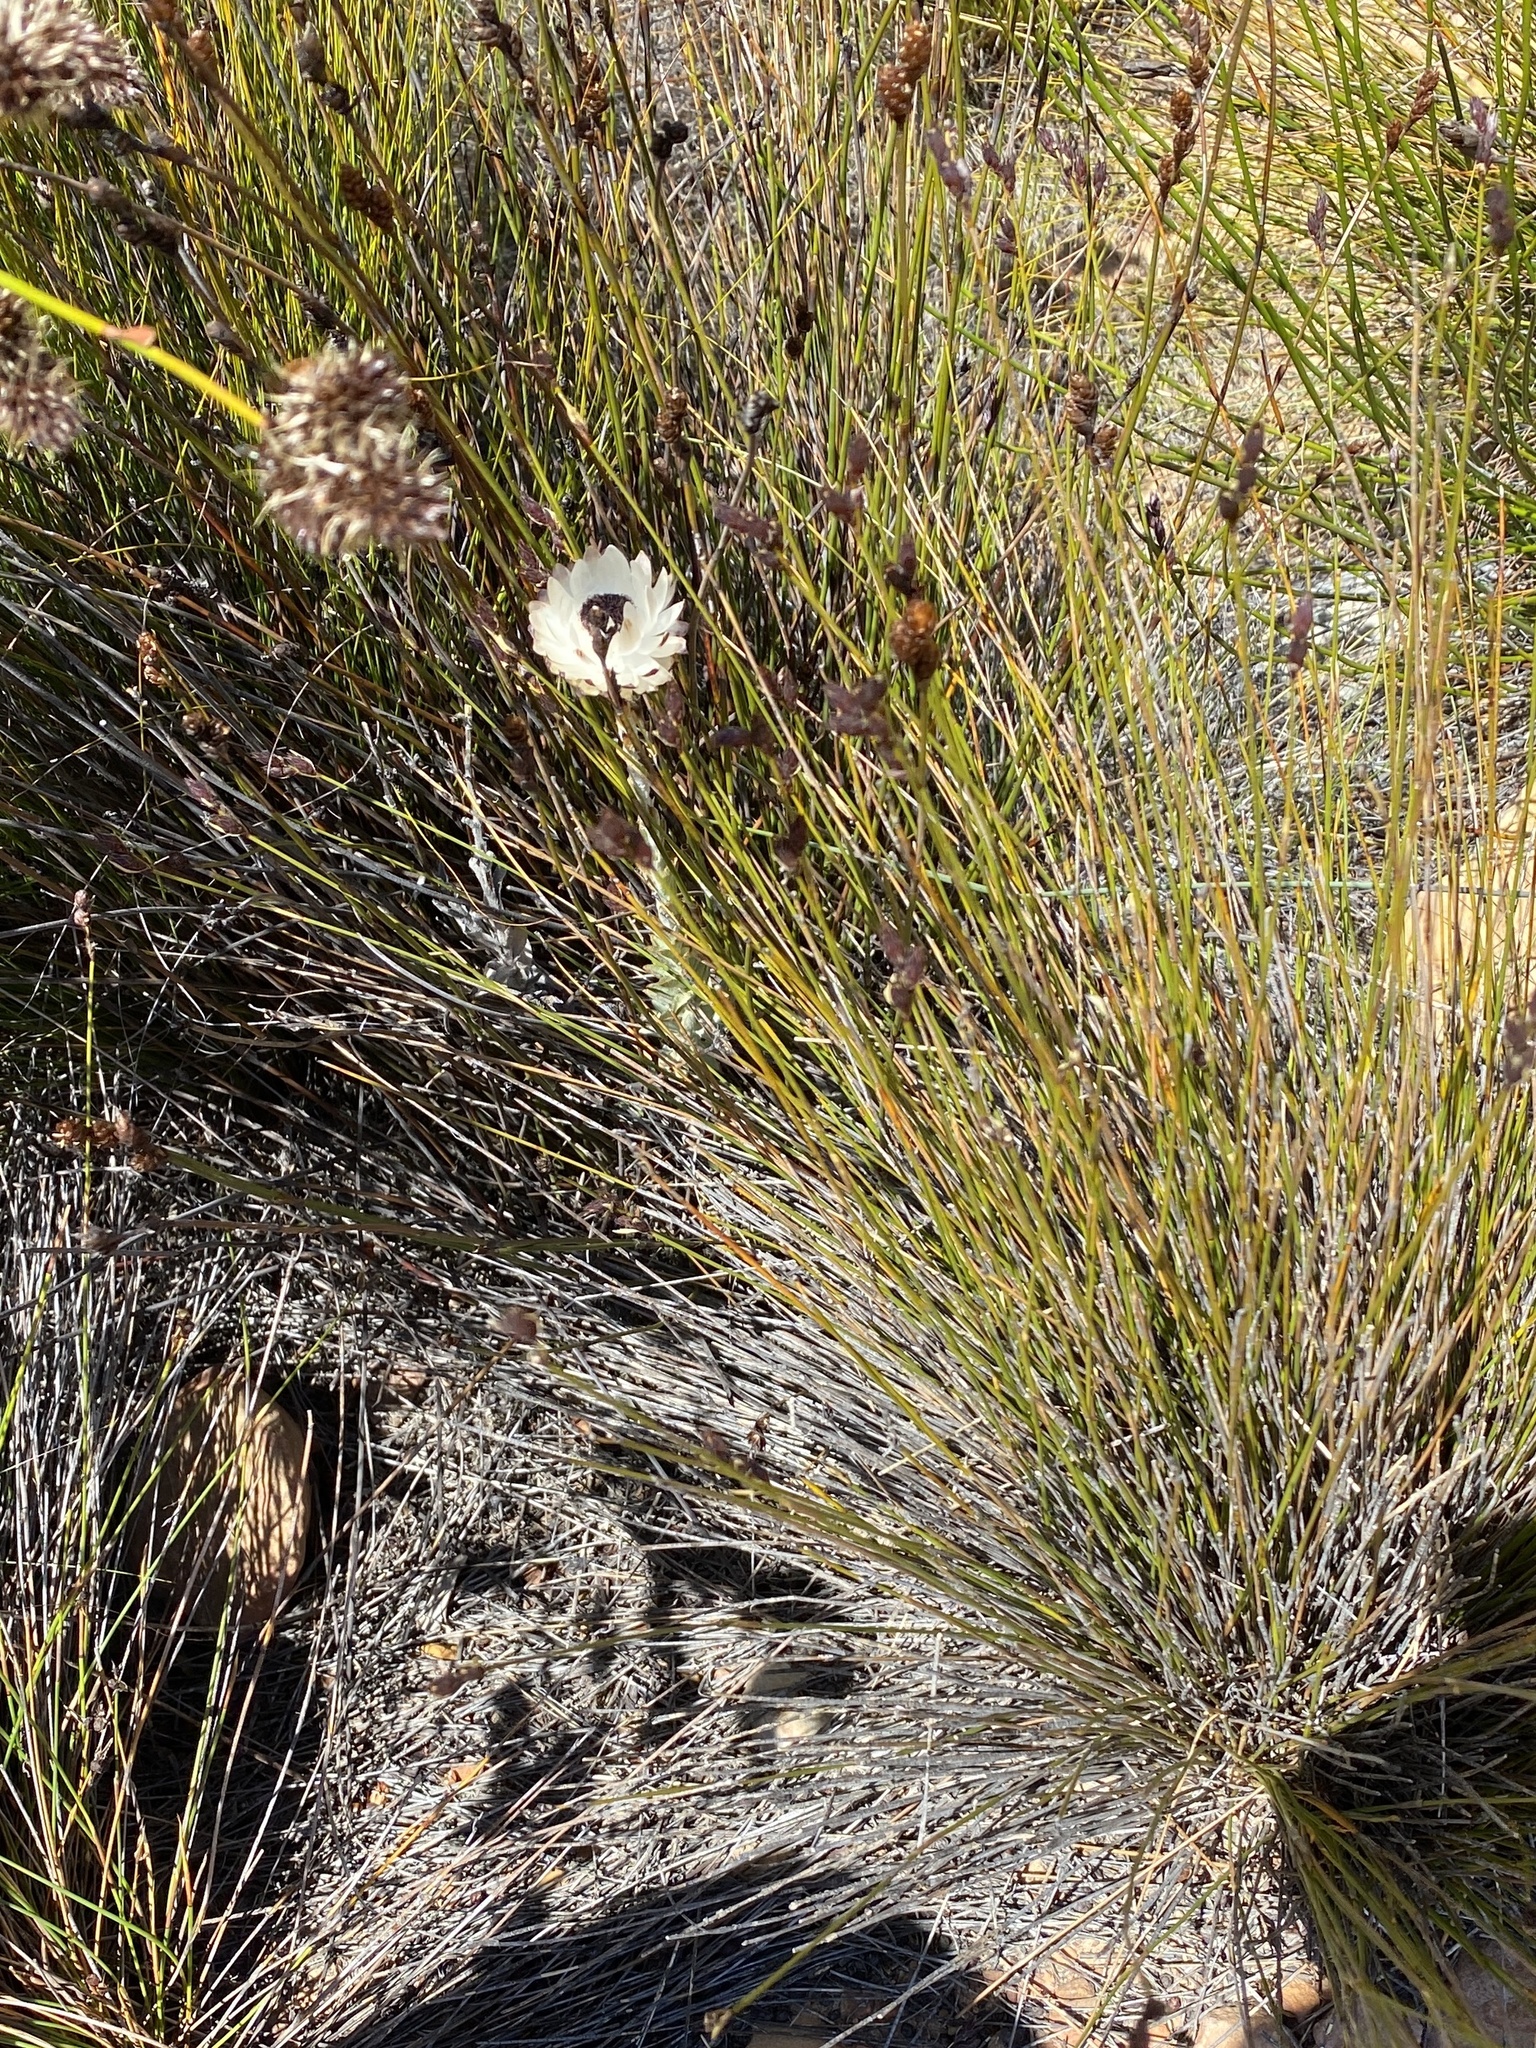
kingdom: Plantae
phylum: Tracheophyta
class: Magnoliopsida
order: Asterales
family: Asteraceae
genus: Syncarpha
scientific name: Syncarpha loganiana
